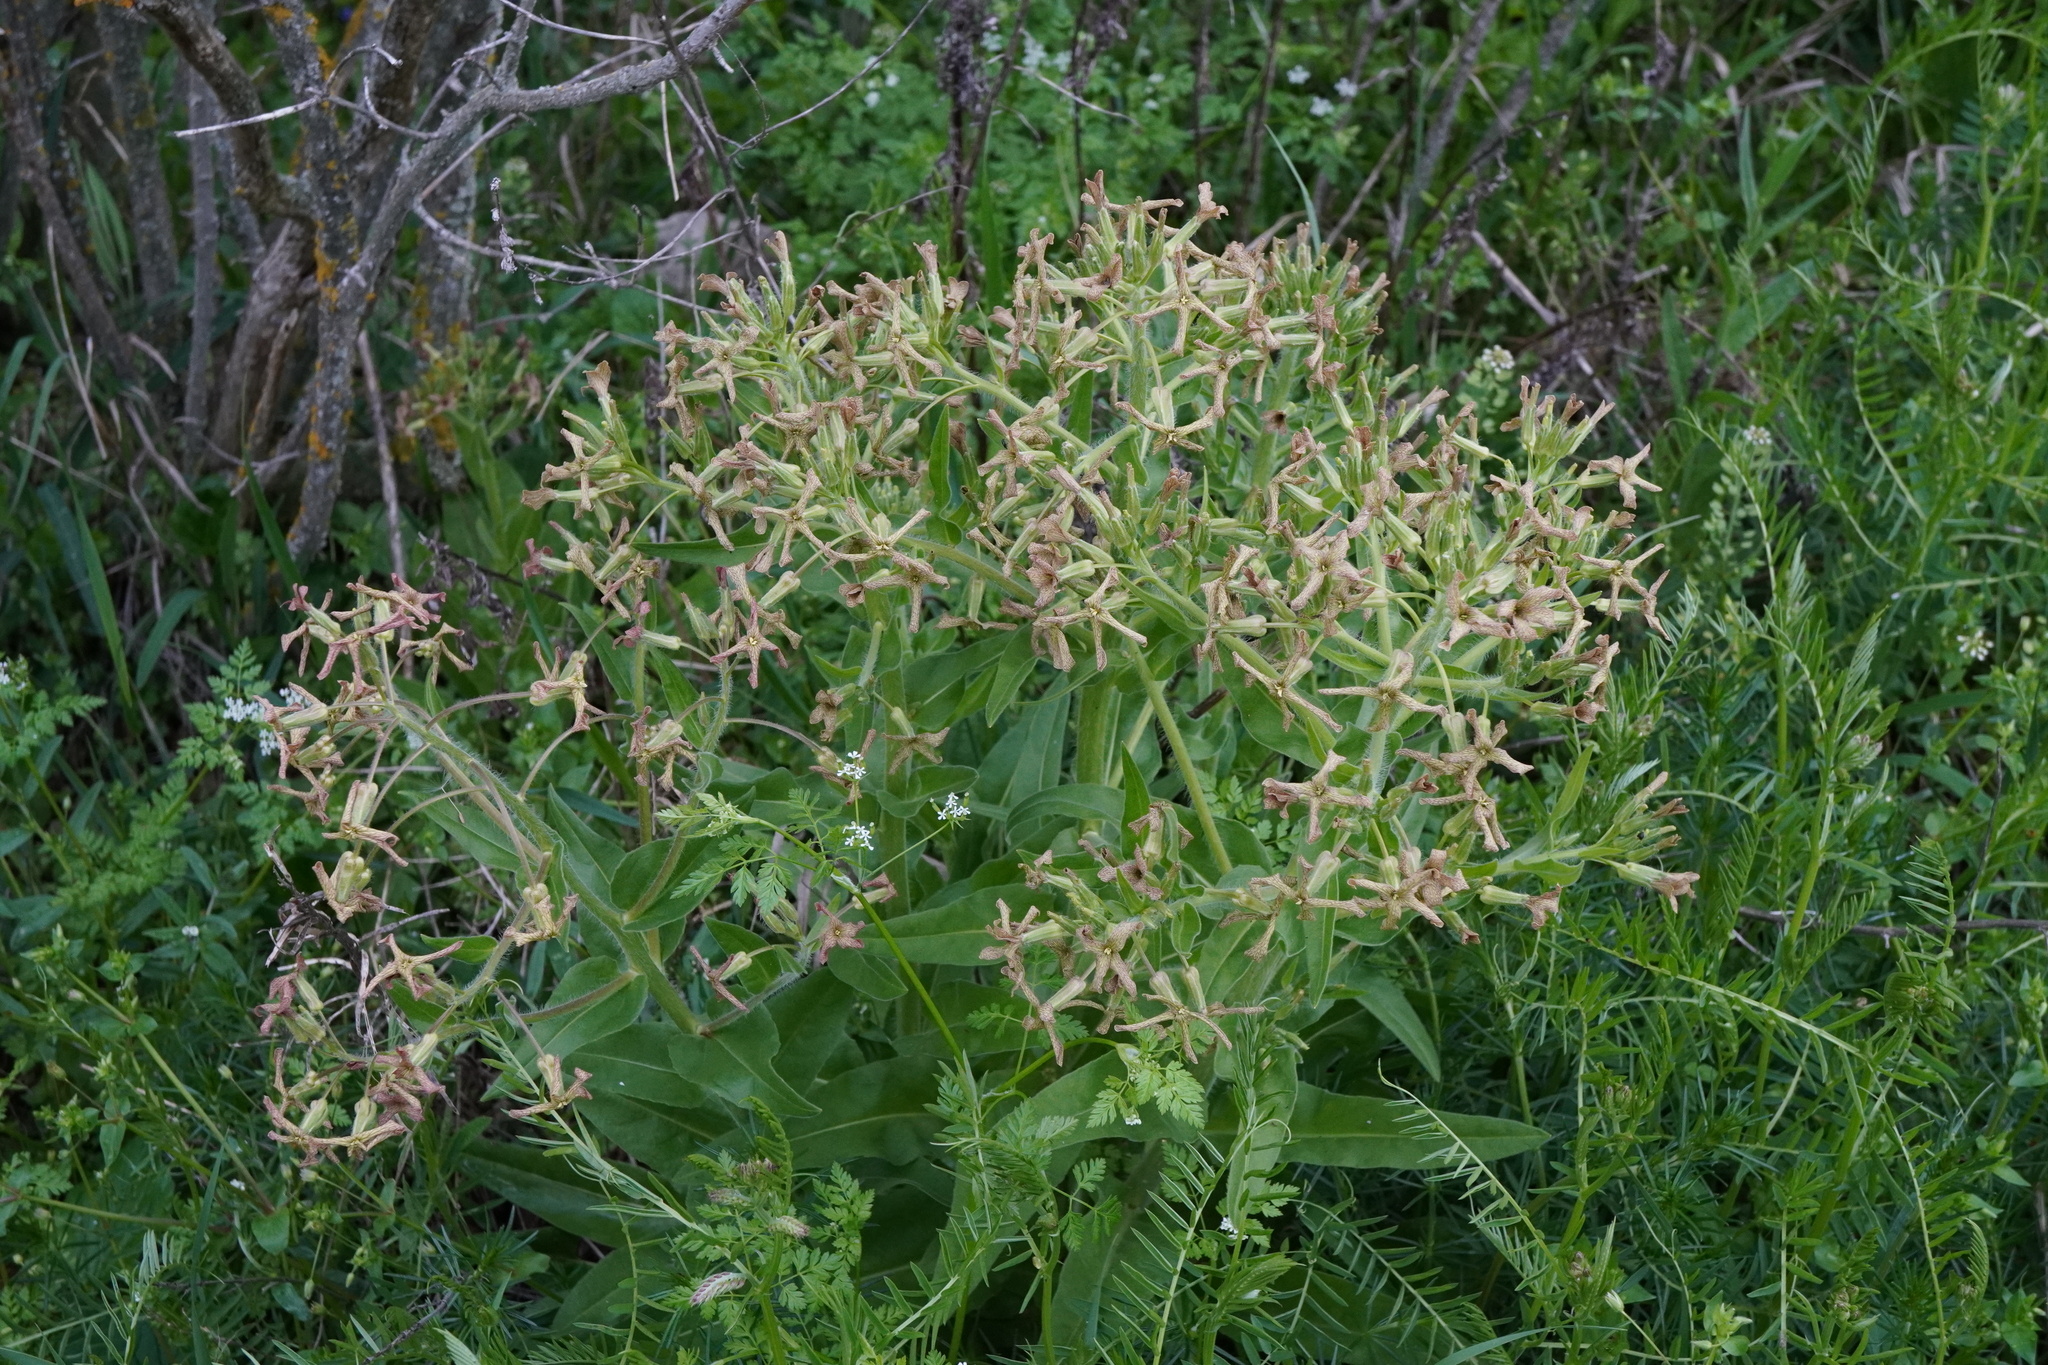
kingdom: Plantae
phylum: Tracheophyta
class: Magnoliopsida
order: Brassicales
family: Brassicaceae
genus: Hesperis
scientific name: Hesperis tristis
